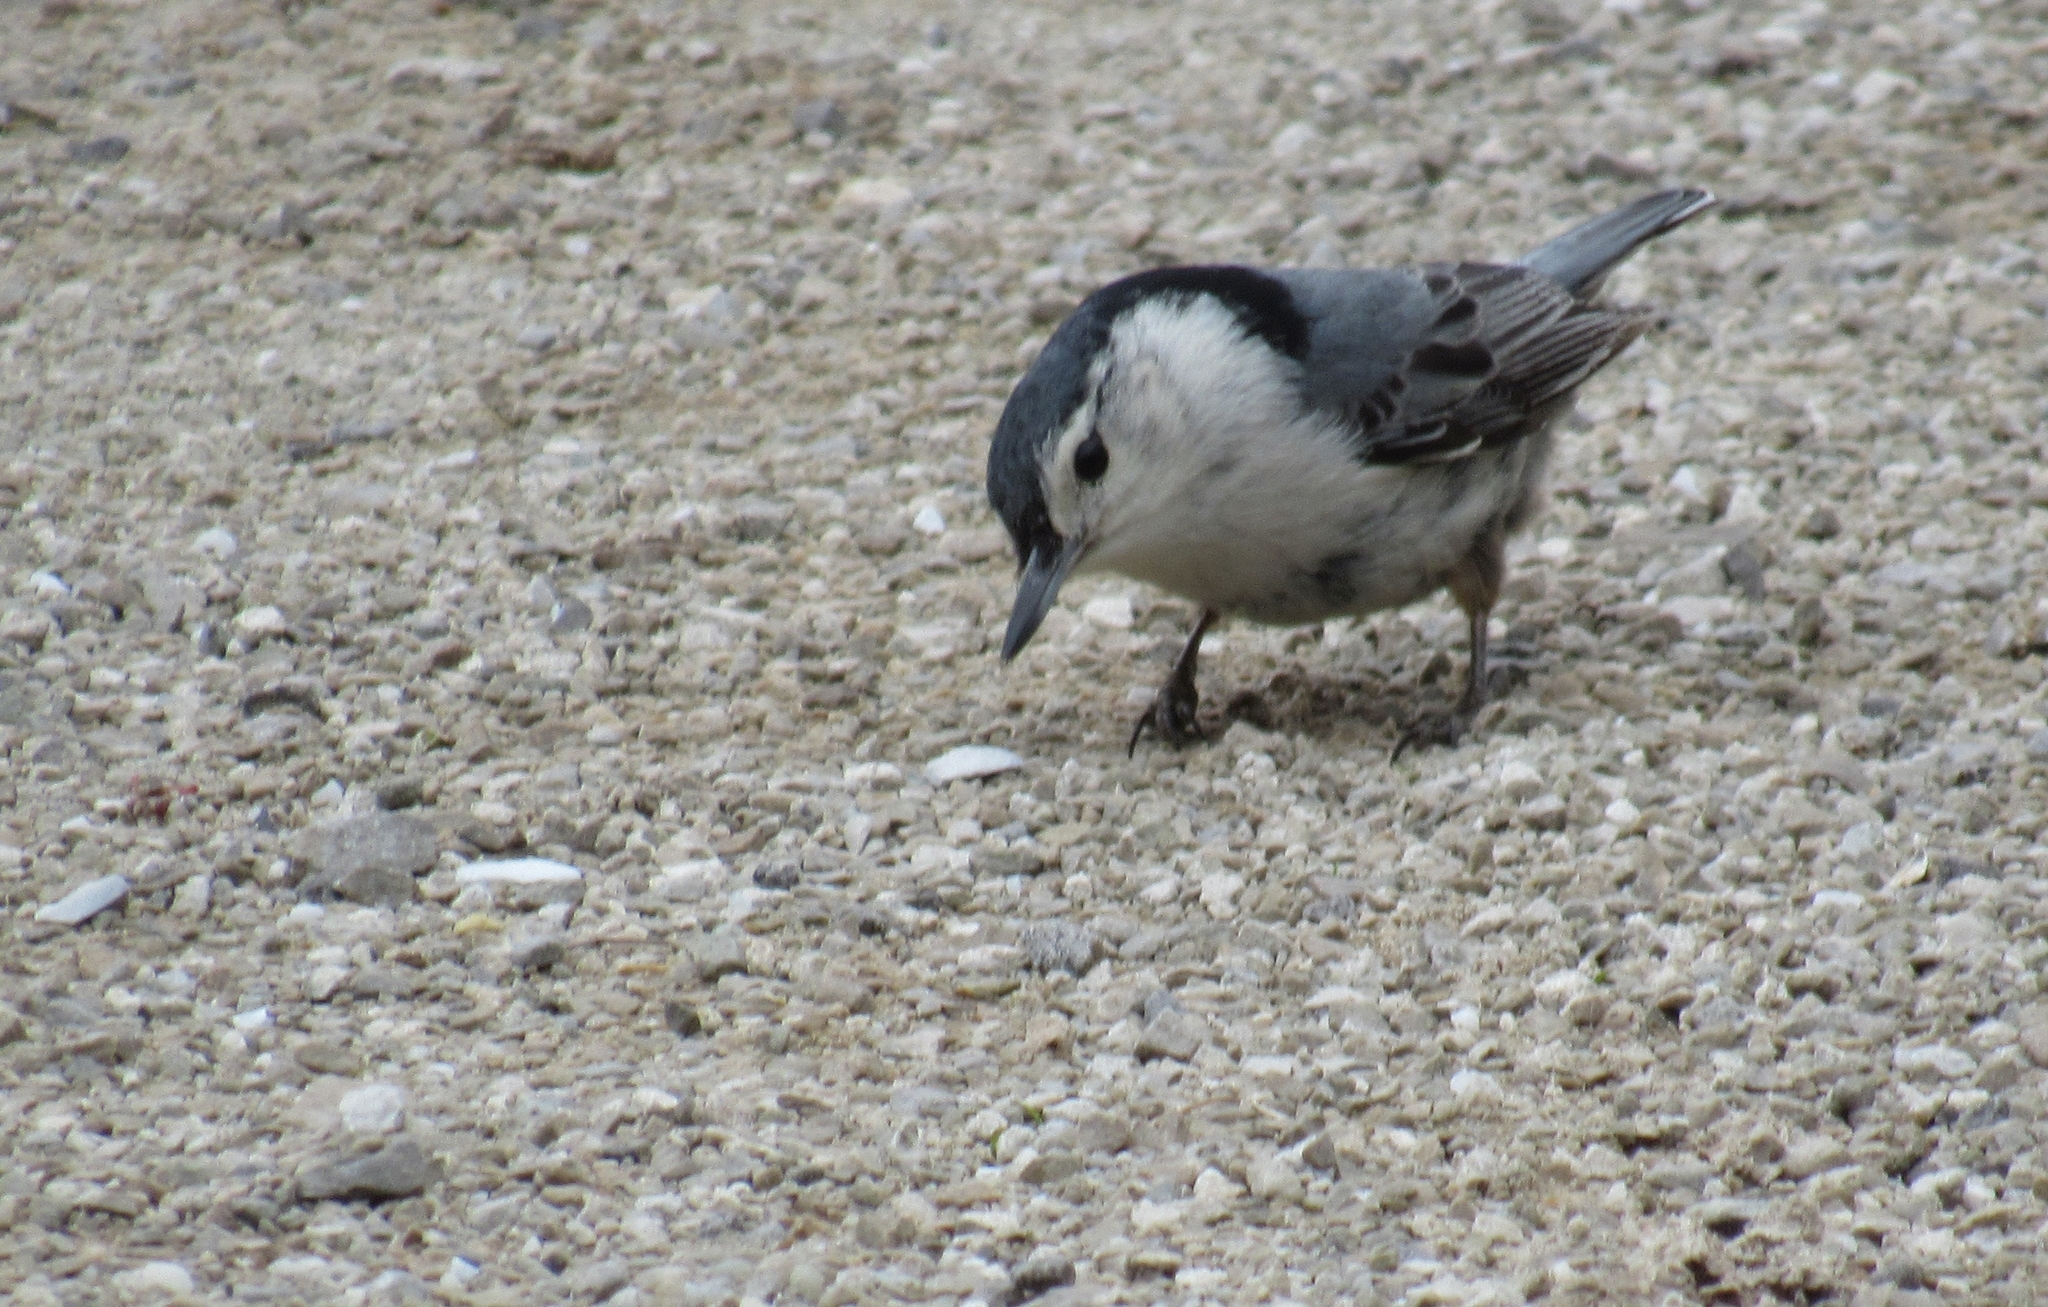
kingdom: Animalia
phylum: Chordata
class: Aves
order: Passeriformes
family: Sittidae
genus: Sitta
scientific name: Sitta carolinensis
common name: White-breasted nuthatch
